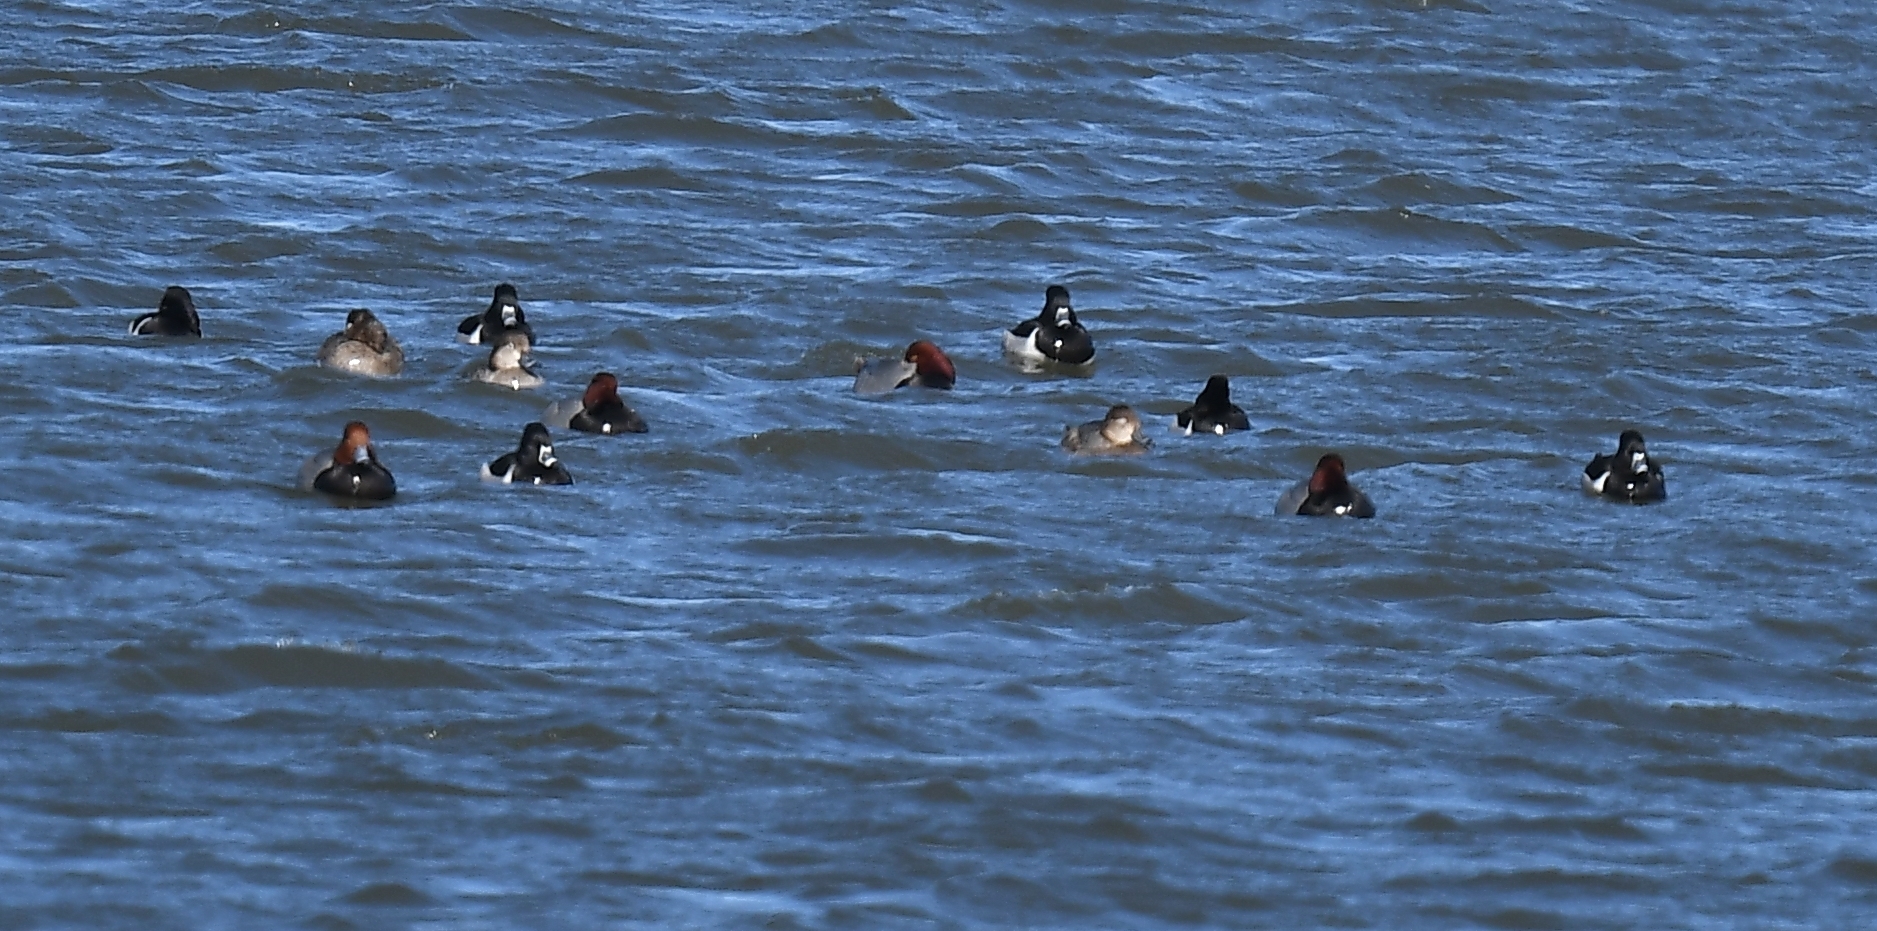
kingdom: Animalia
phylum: Chordata
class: Aves
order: Anseriformes
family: Anatidae
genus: Aythya
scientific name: Aythya collaris
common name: Ring-necked duck
